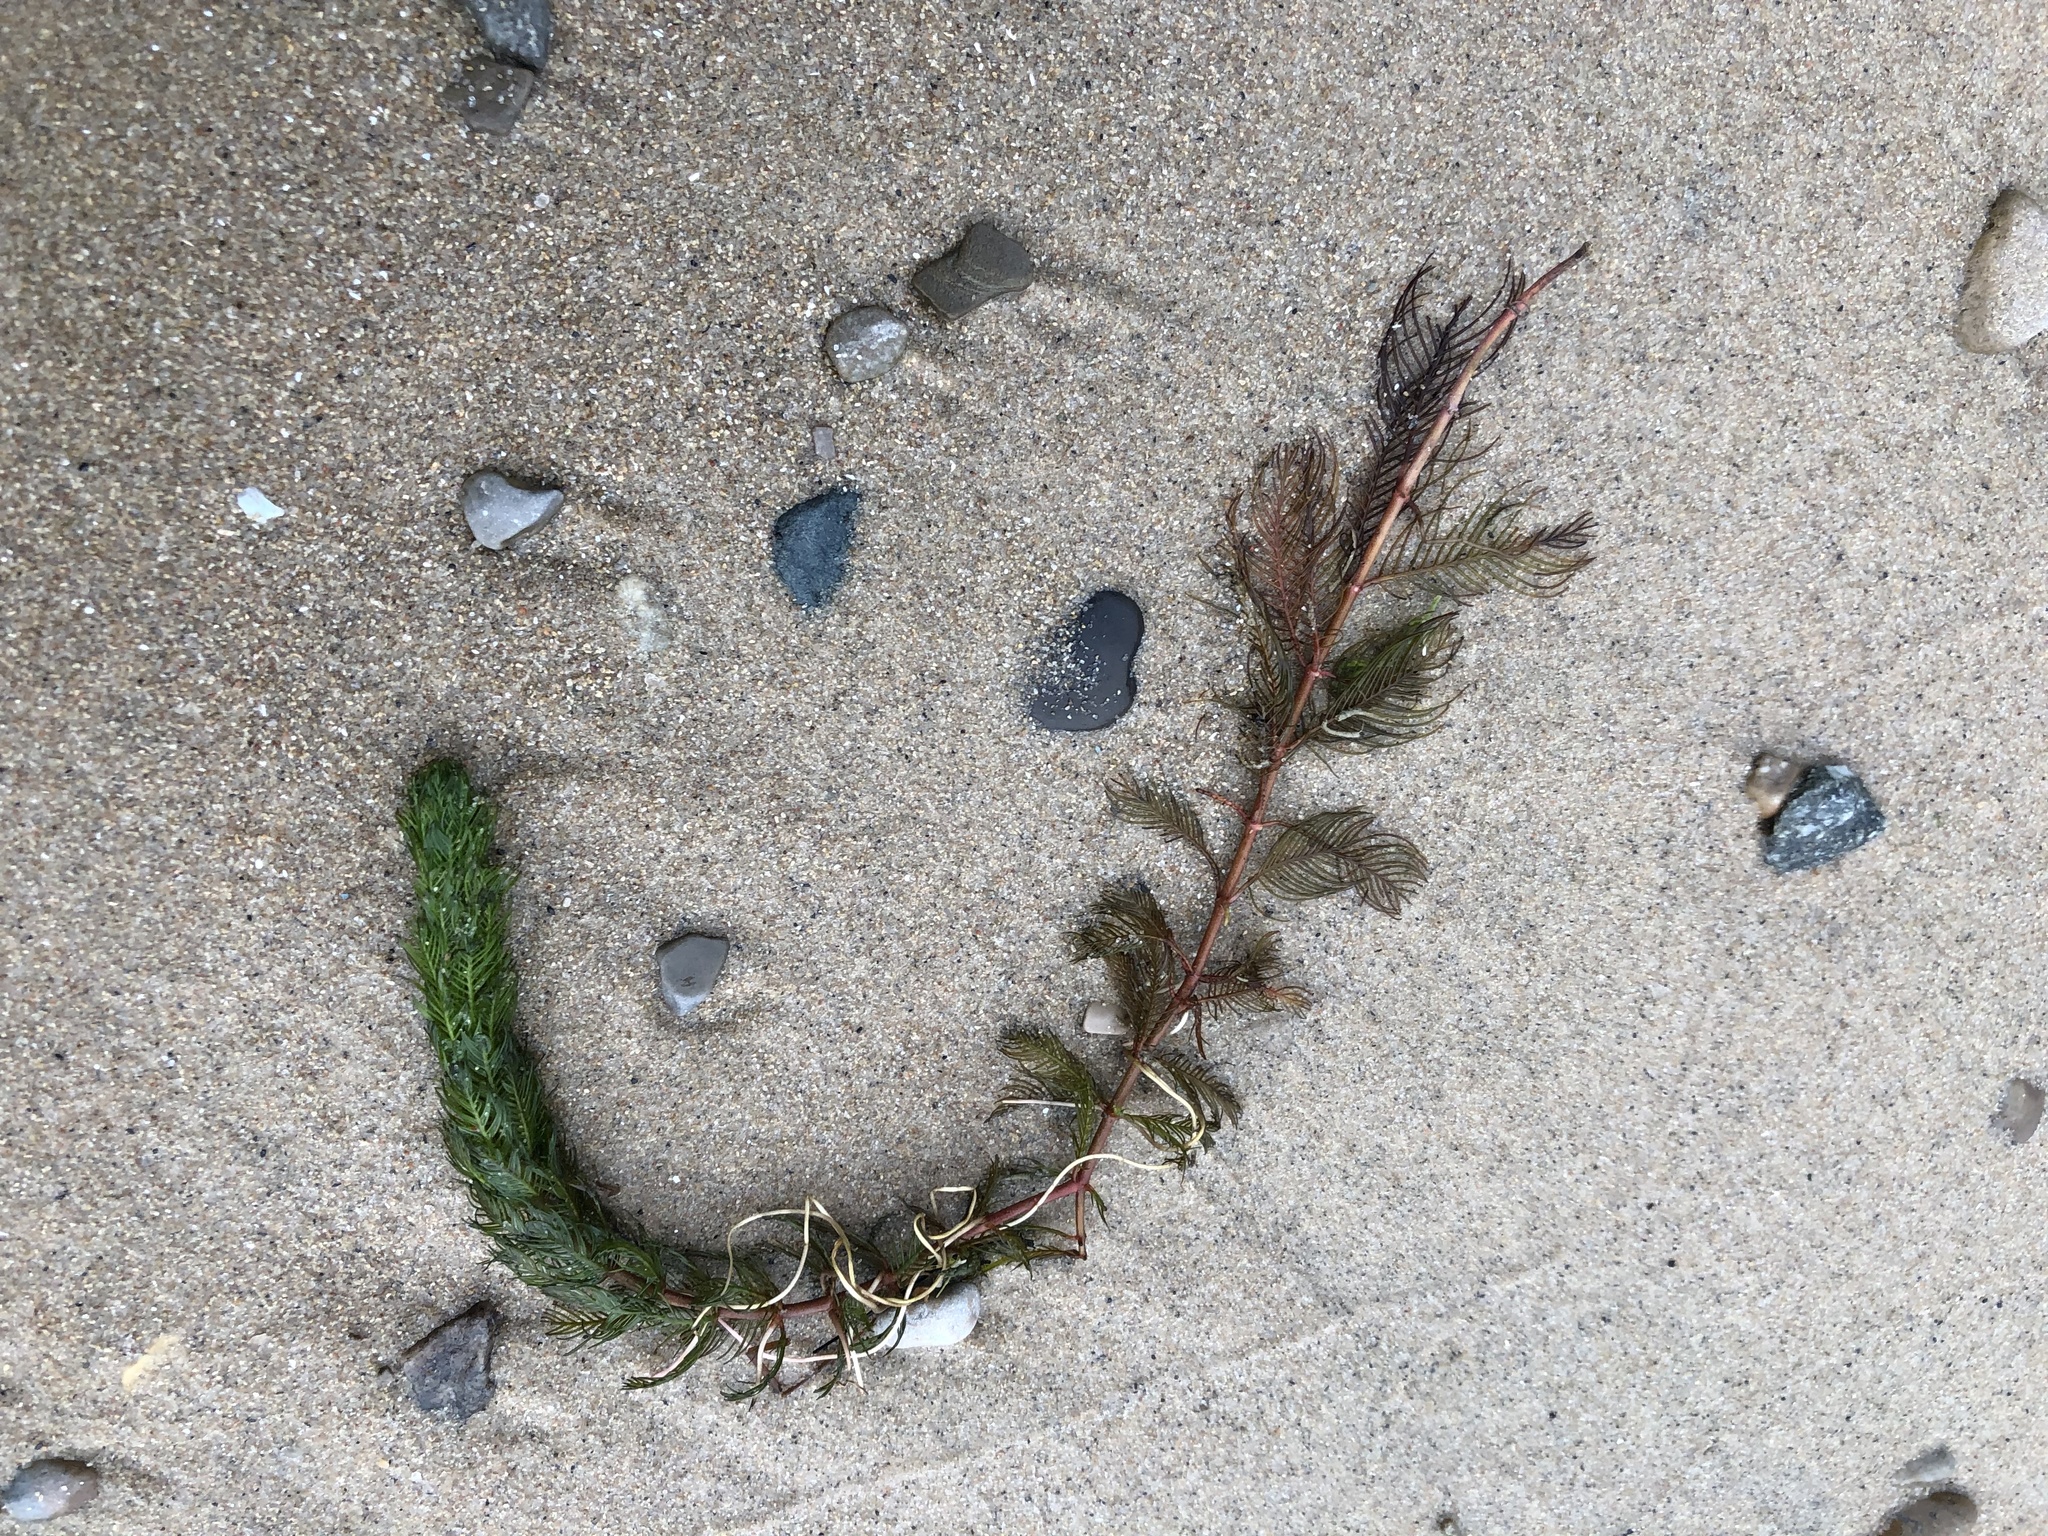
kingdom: Plantae
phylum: Tracheophyta
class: Magnoliopsida
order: Saxifragales
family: Haloragaceae
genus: Myriophyllum
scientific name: Myriophyllum spicatum
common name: Spiked water-milfoil
